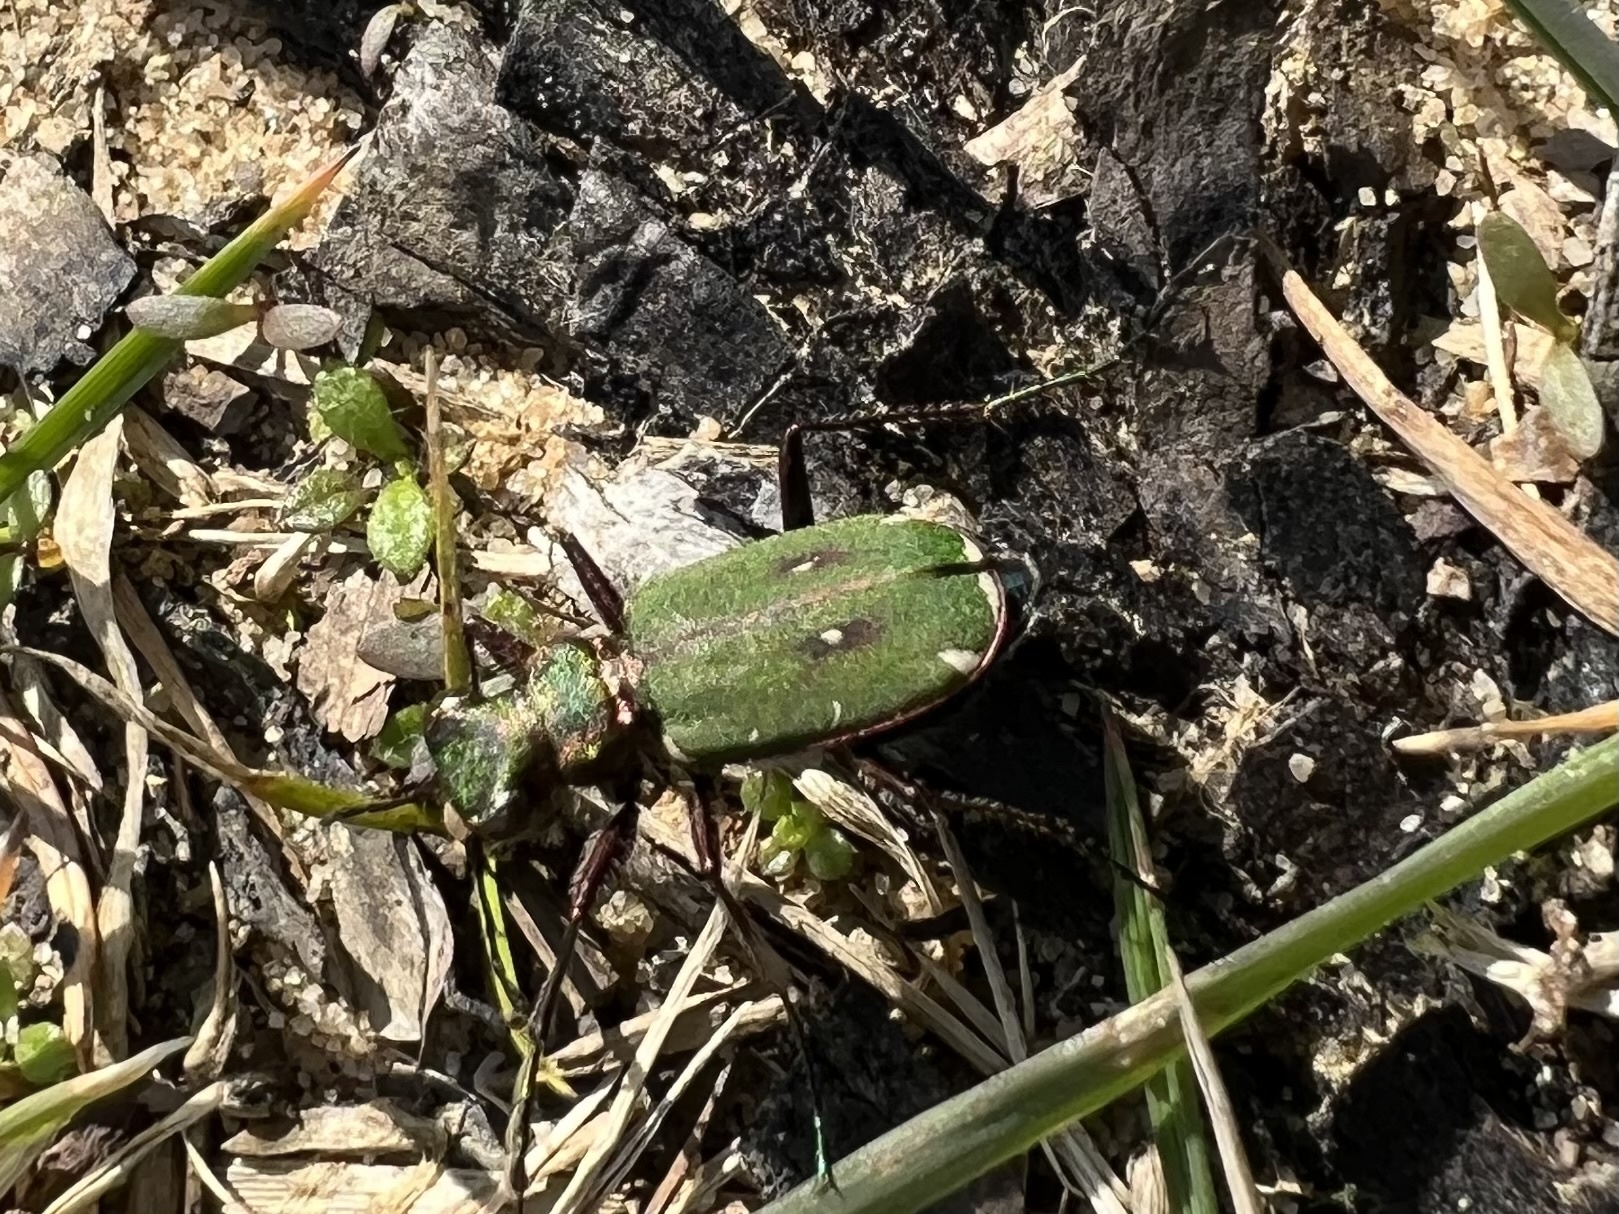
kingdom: Animalia
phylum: Arthropoda
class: Insecta
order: Coleoptera
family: Carabidae
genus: Cicindela
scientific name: Cicindela campestris
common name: Common tiger beetle
